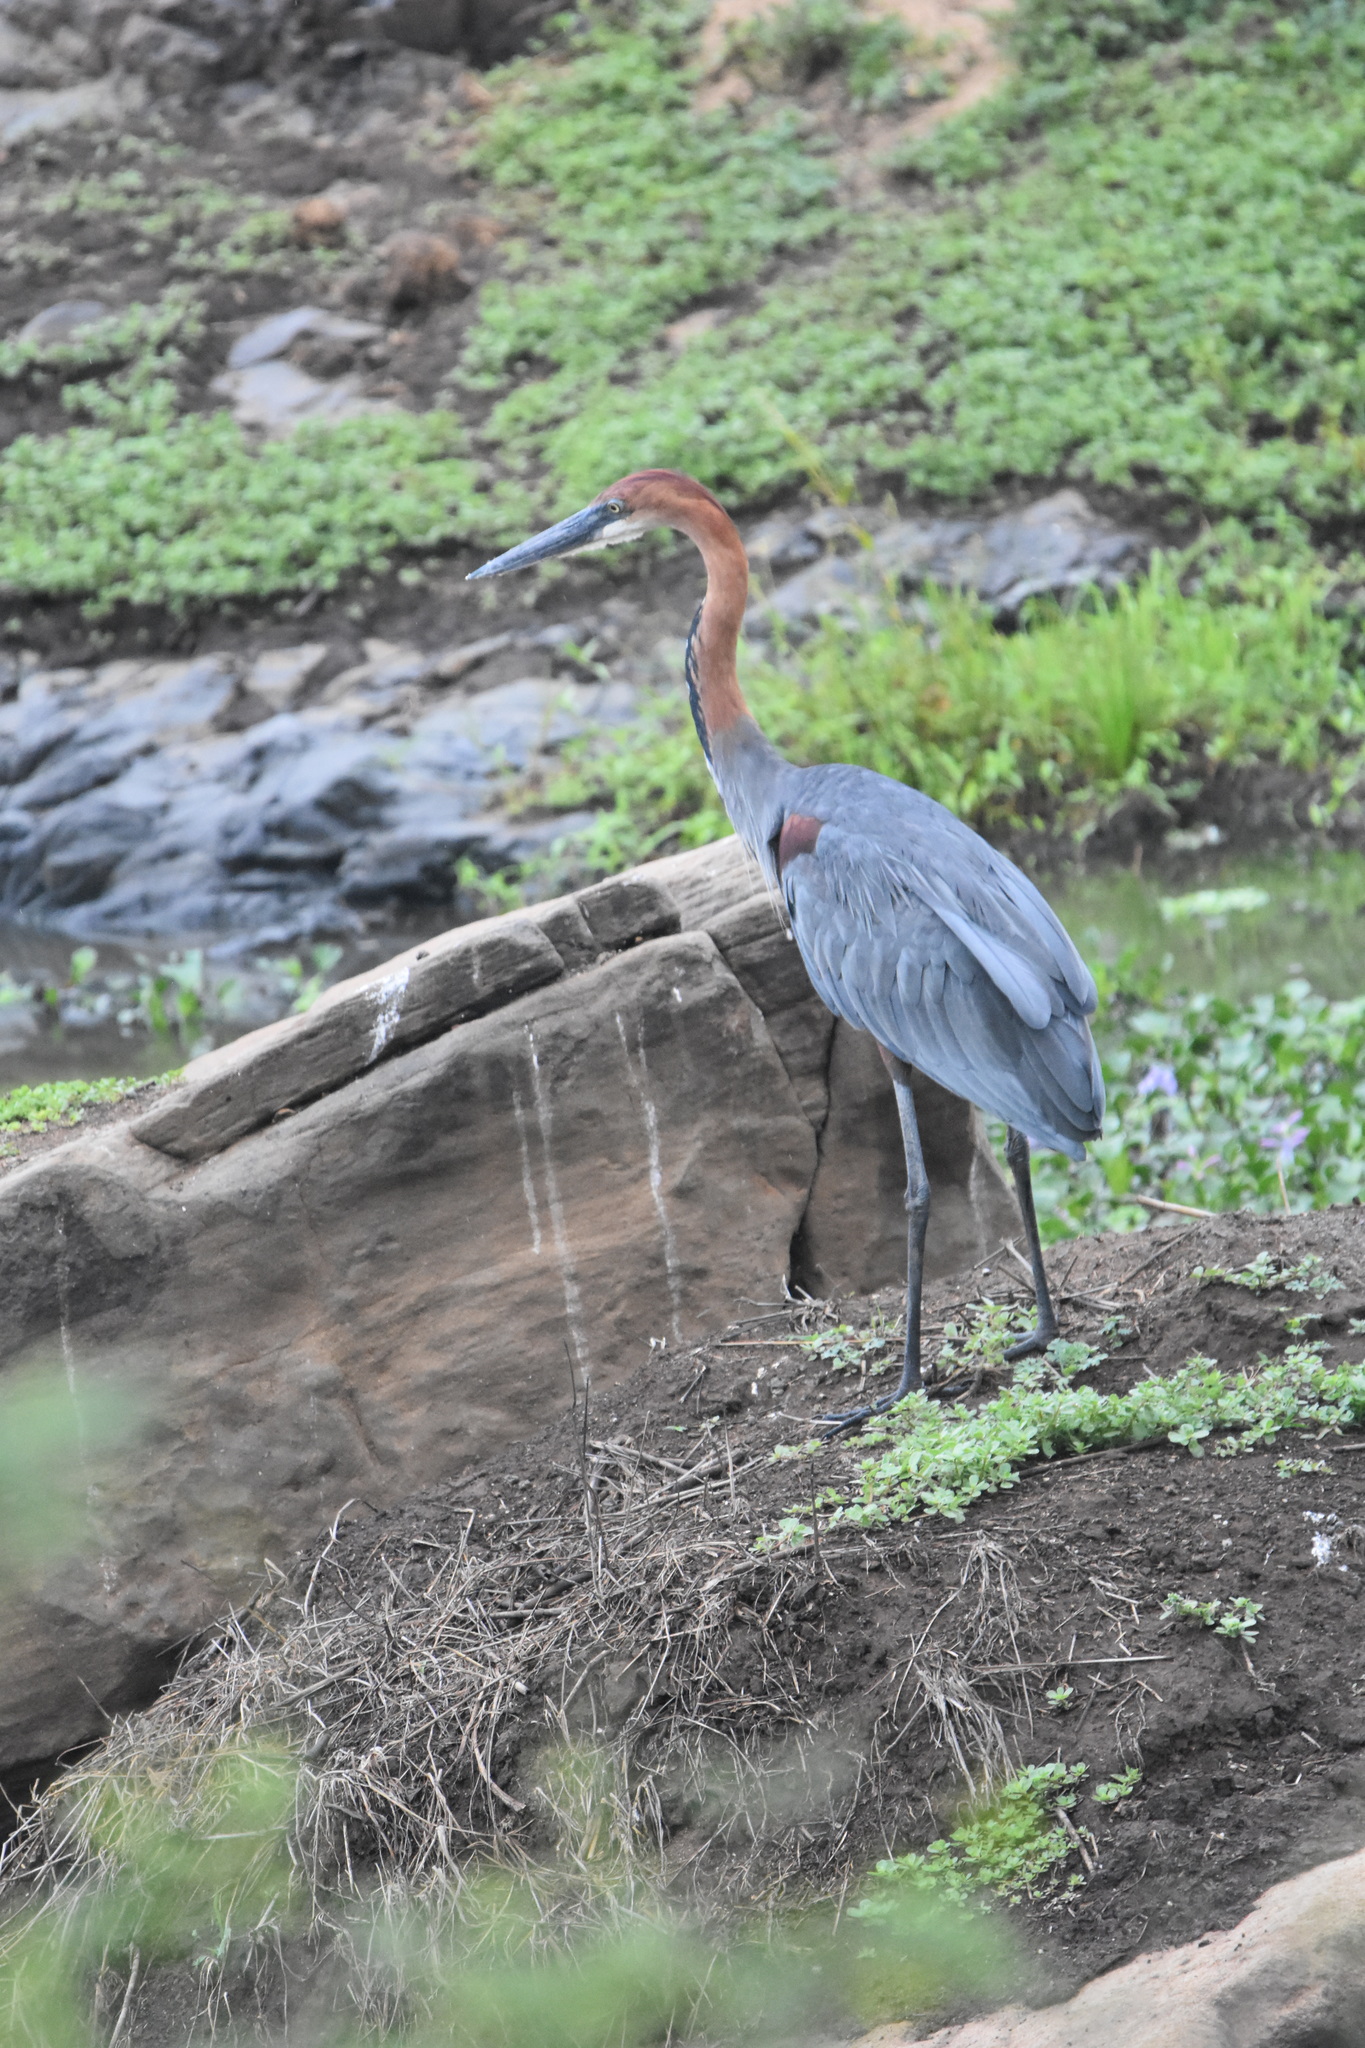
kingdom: Animalia
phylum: Chordata
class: Aves
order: Pelecaniformes
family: Ardeidae
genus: Ardea
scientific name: Ardea goliath
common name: Goliath heron
